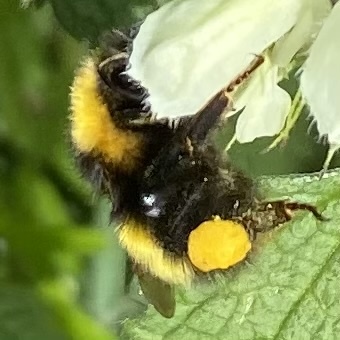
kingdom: Animalia
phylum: Arthropoda
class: Insecta
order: Hymenoptera
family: Apidae
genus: Bombus
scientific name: Bombus haematurus
